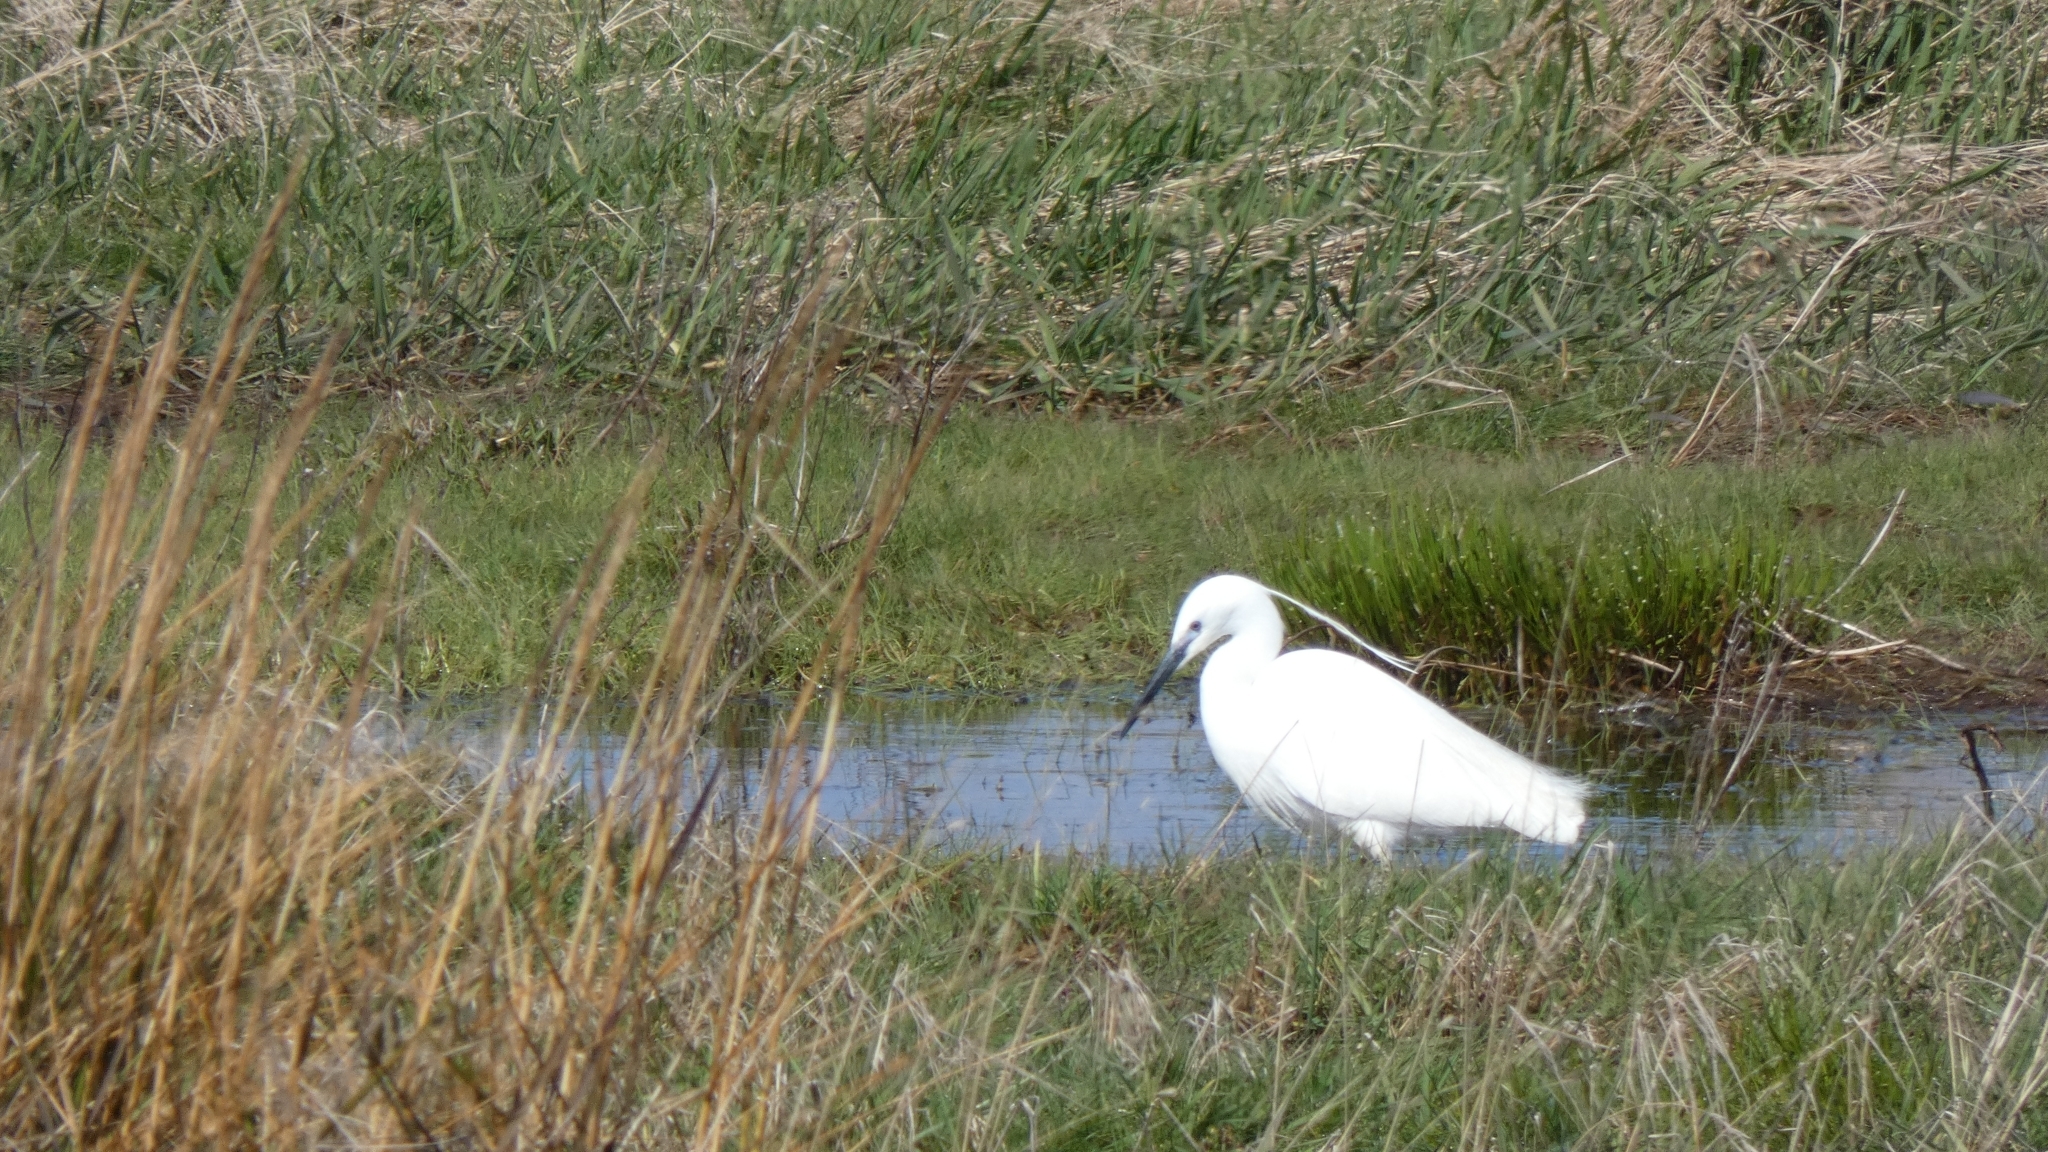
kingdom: Animalia
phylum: Chordata
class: Aves
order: Pelecaniformes
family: Ardeidae
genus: Egretta
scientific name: Egretta garzetta
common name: Little egret
